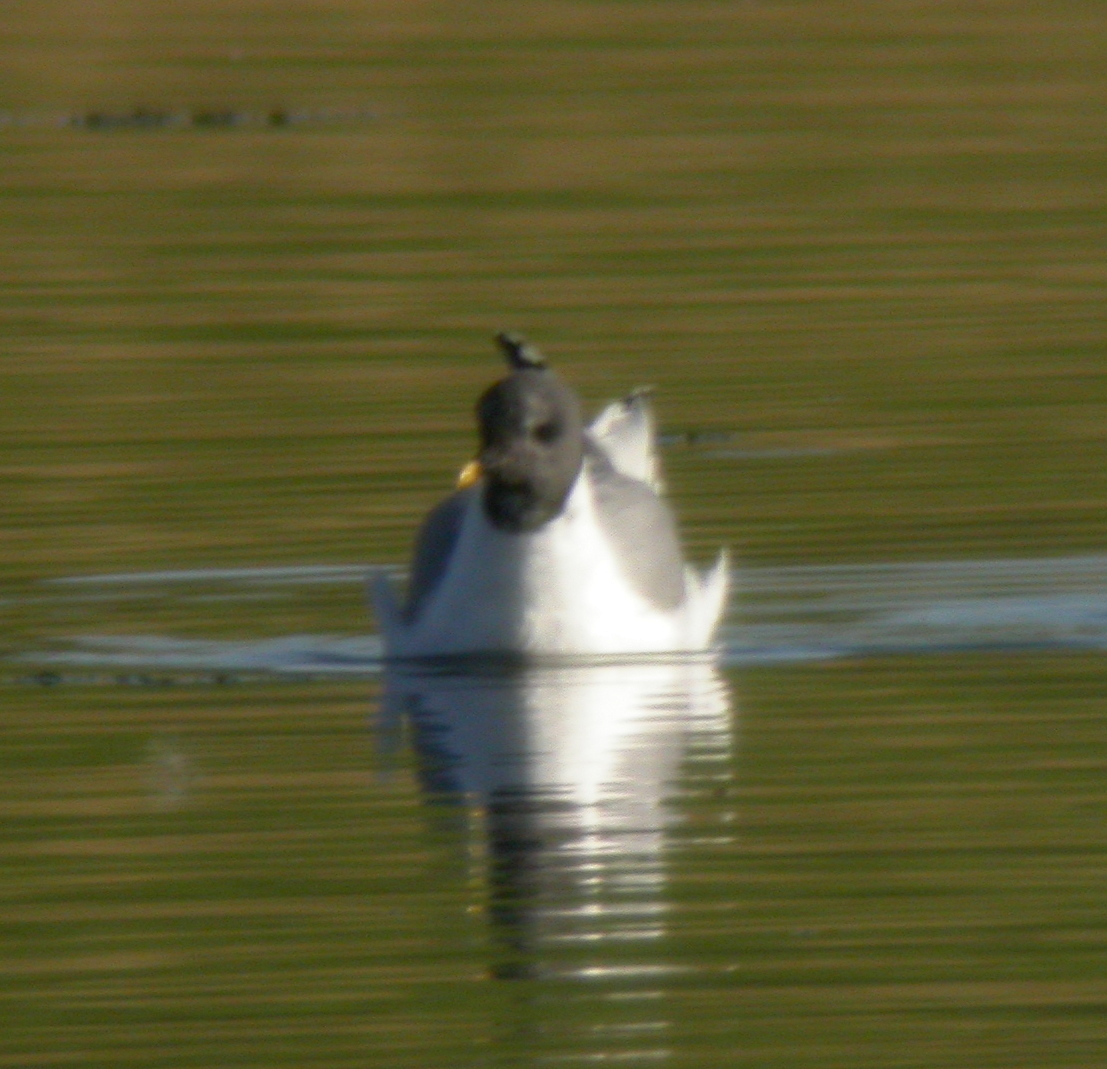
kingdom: Animalia
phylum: Chordata
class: Aves
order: Charadriiformes
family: Laridae
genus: Xema
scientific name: Xema sabini
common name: Sabine's gull
